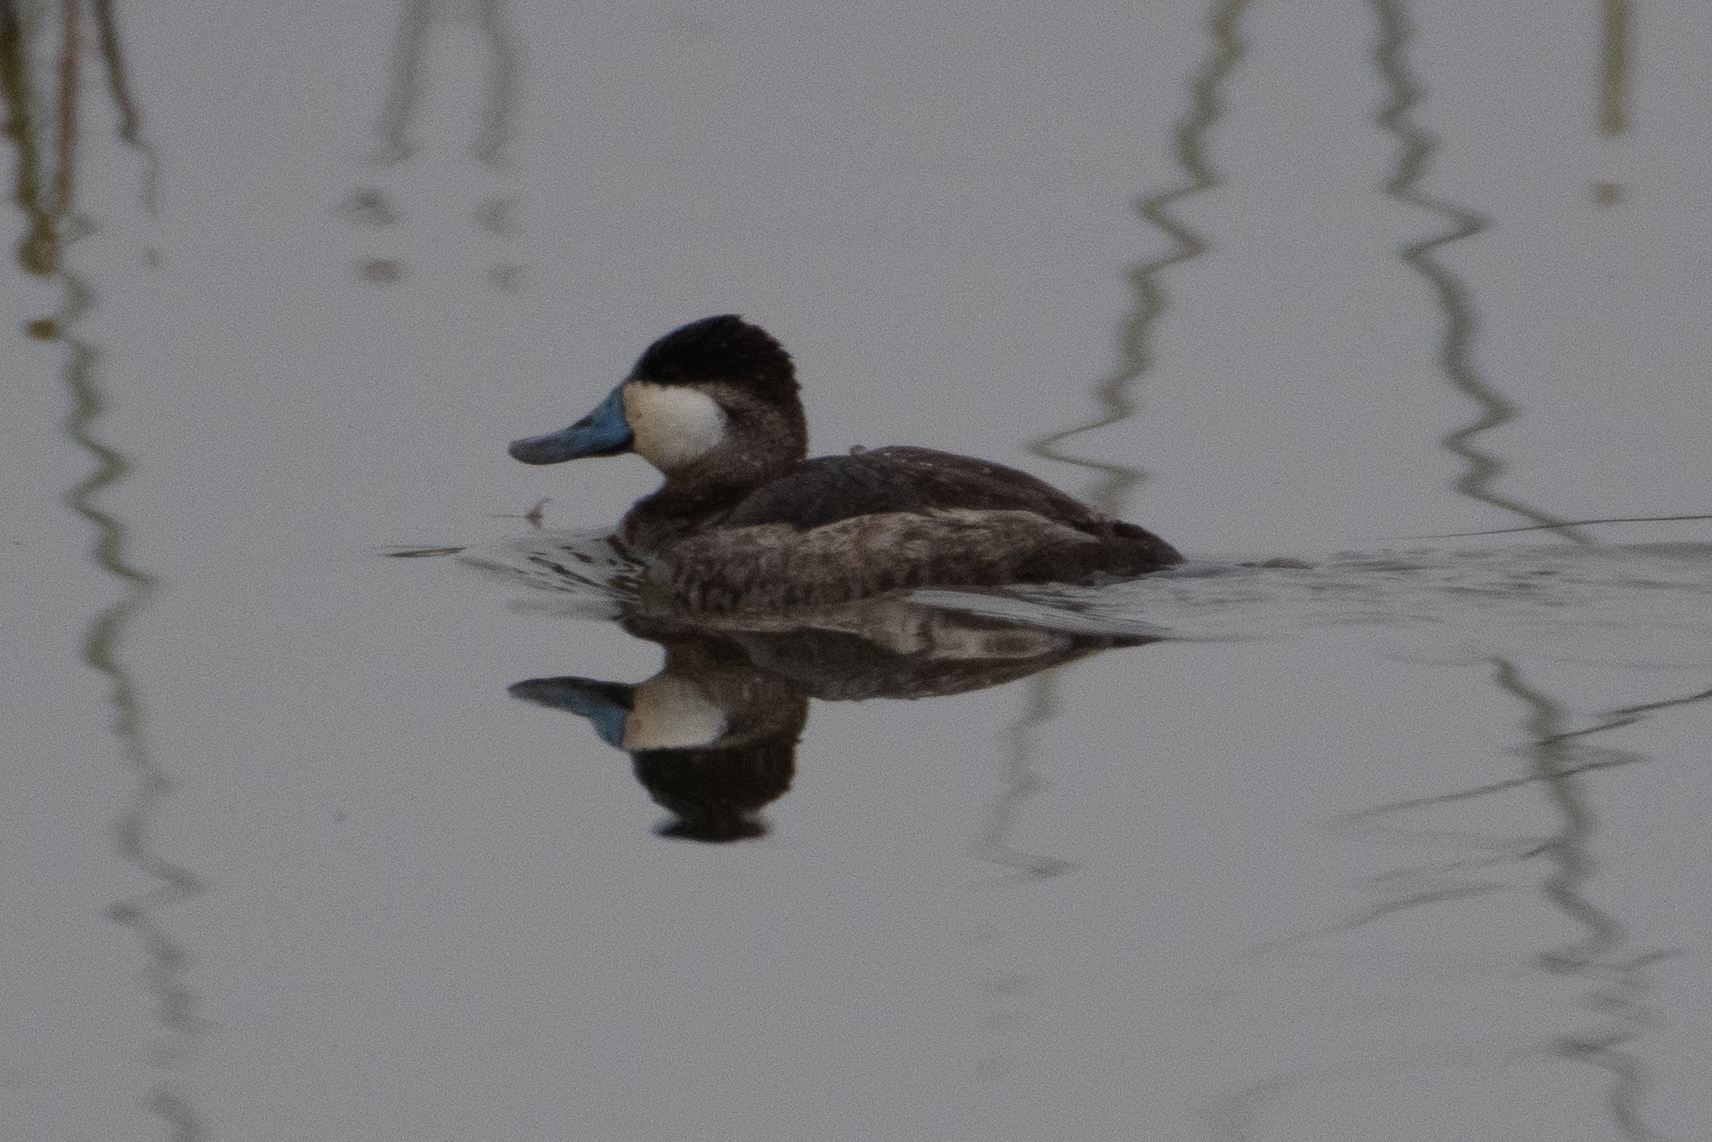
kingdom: Animalia
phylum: Chordata
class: Aves
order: Anseriformes
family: Anatidae
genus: Oxyura
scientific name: Oxyura jamaicensis
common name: Ruddy duck
